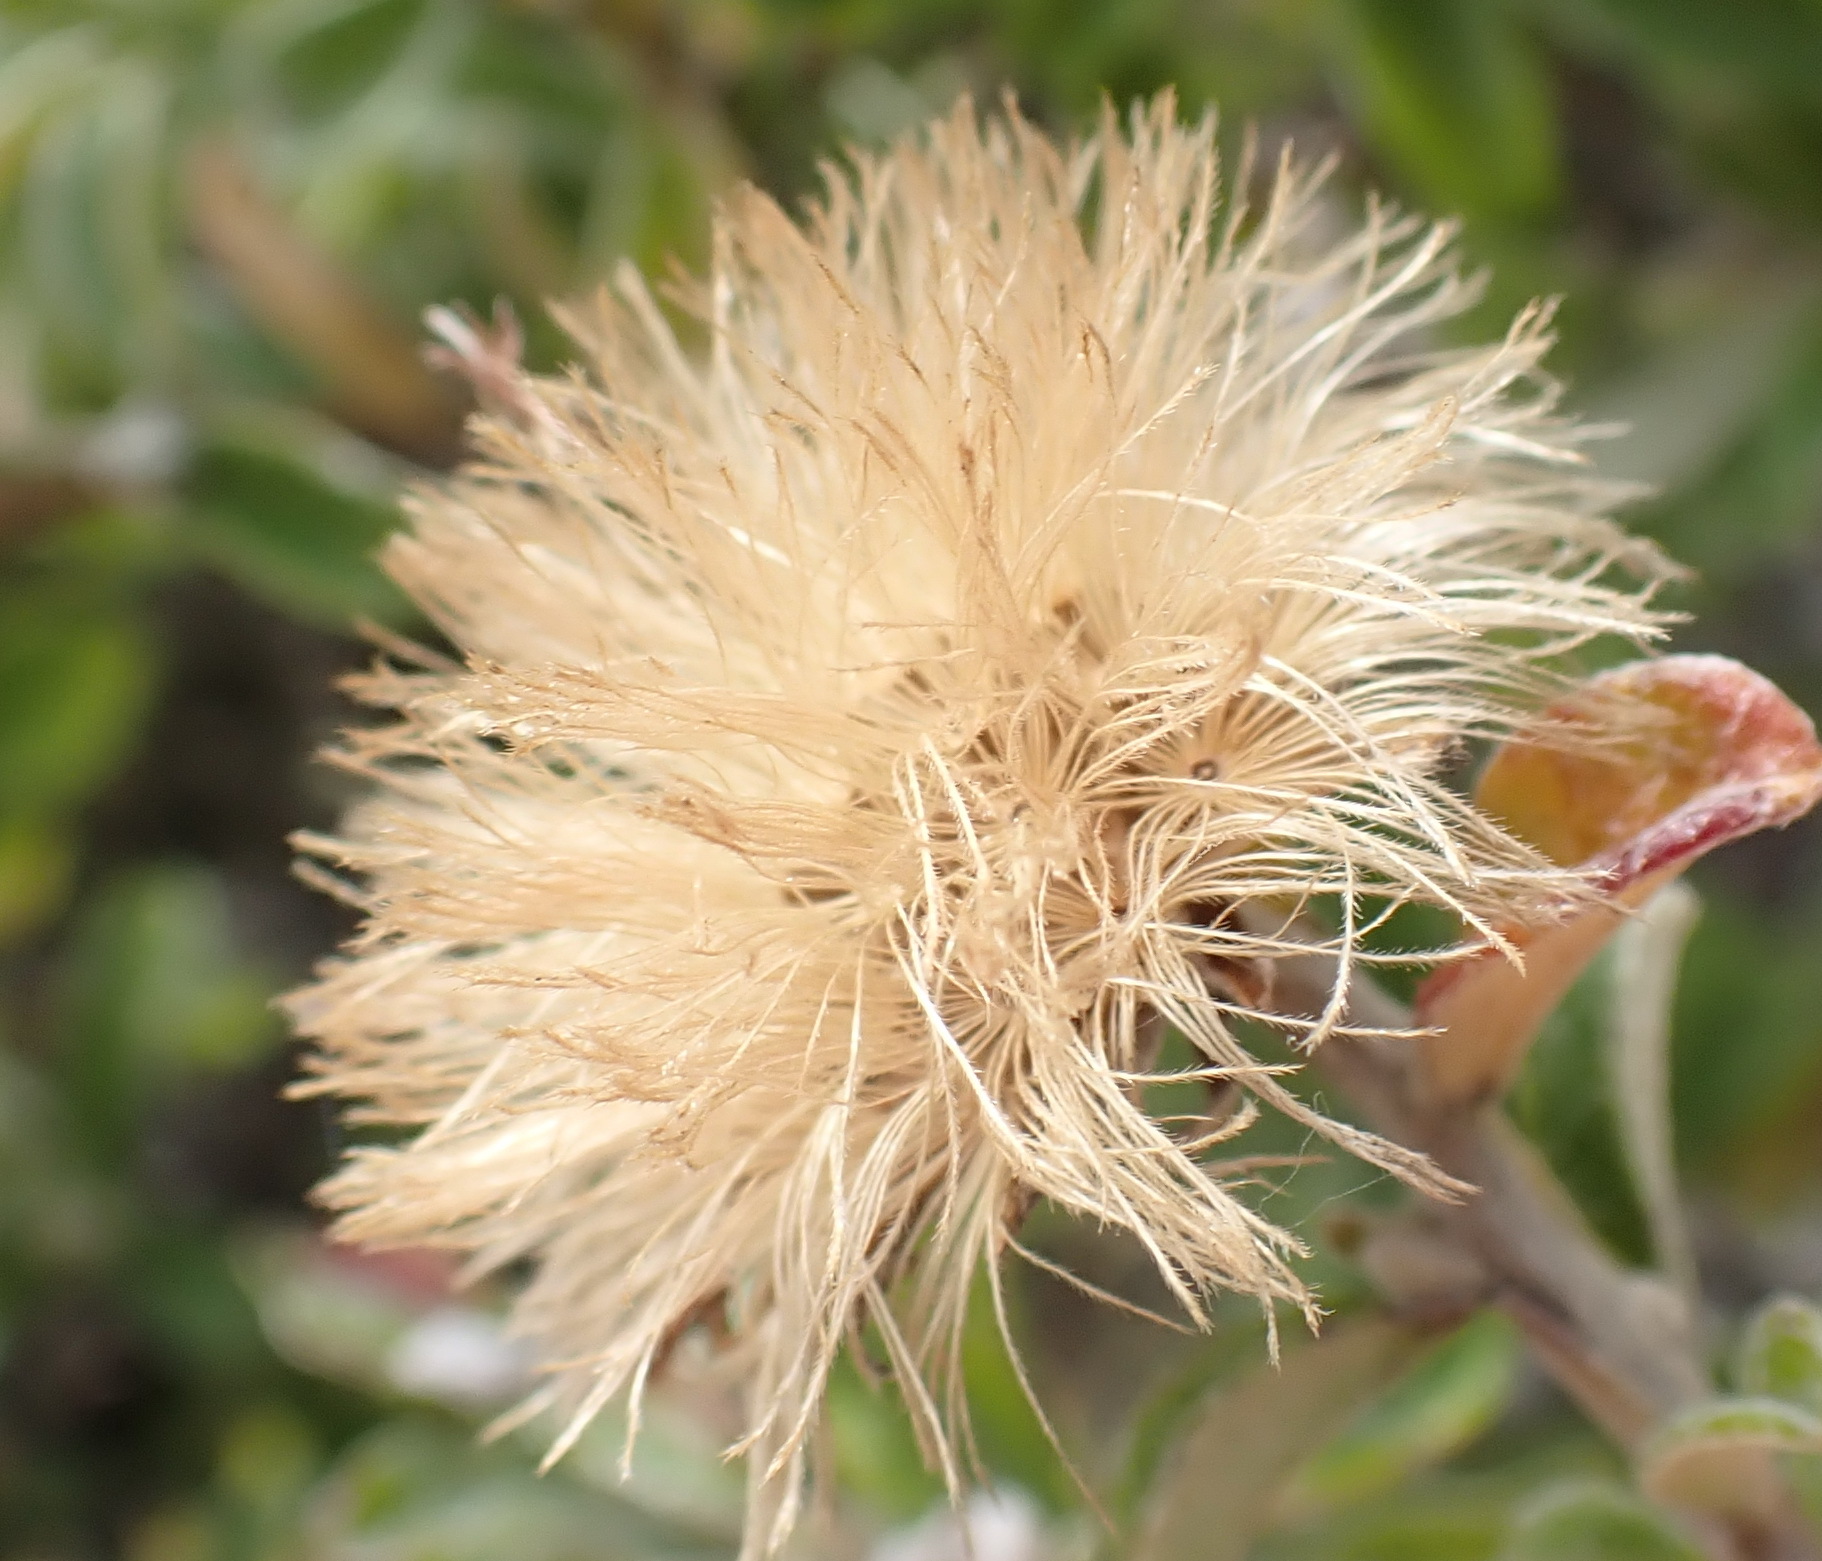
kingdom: Plantae
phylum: Tracheophyta
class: Magnoliopsida
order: Asterales
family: Asteraceae
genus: Printzia
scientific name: Printzia polifolia
